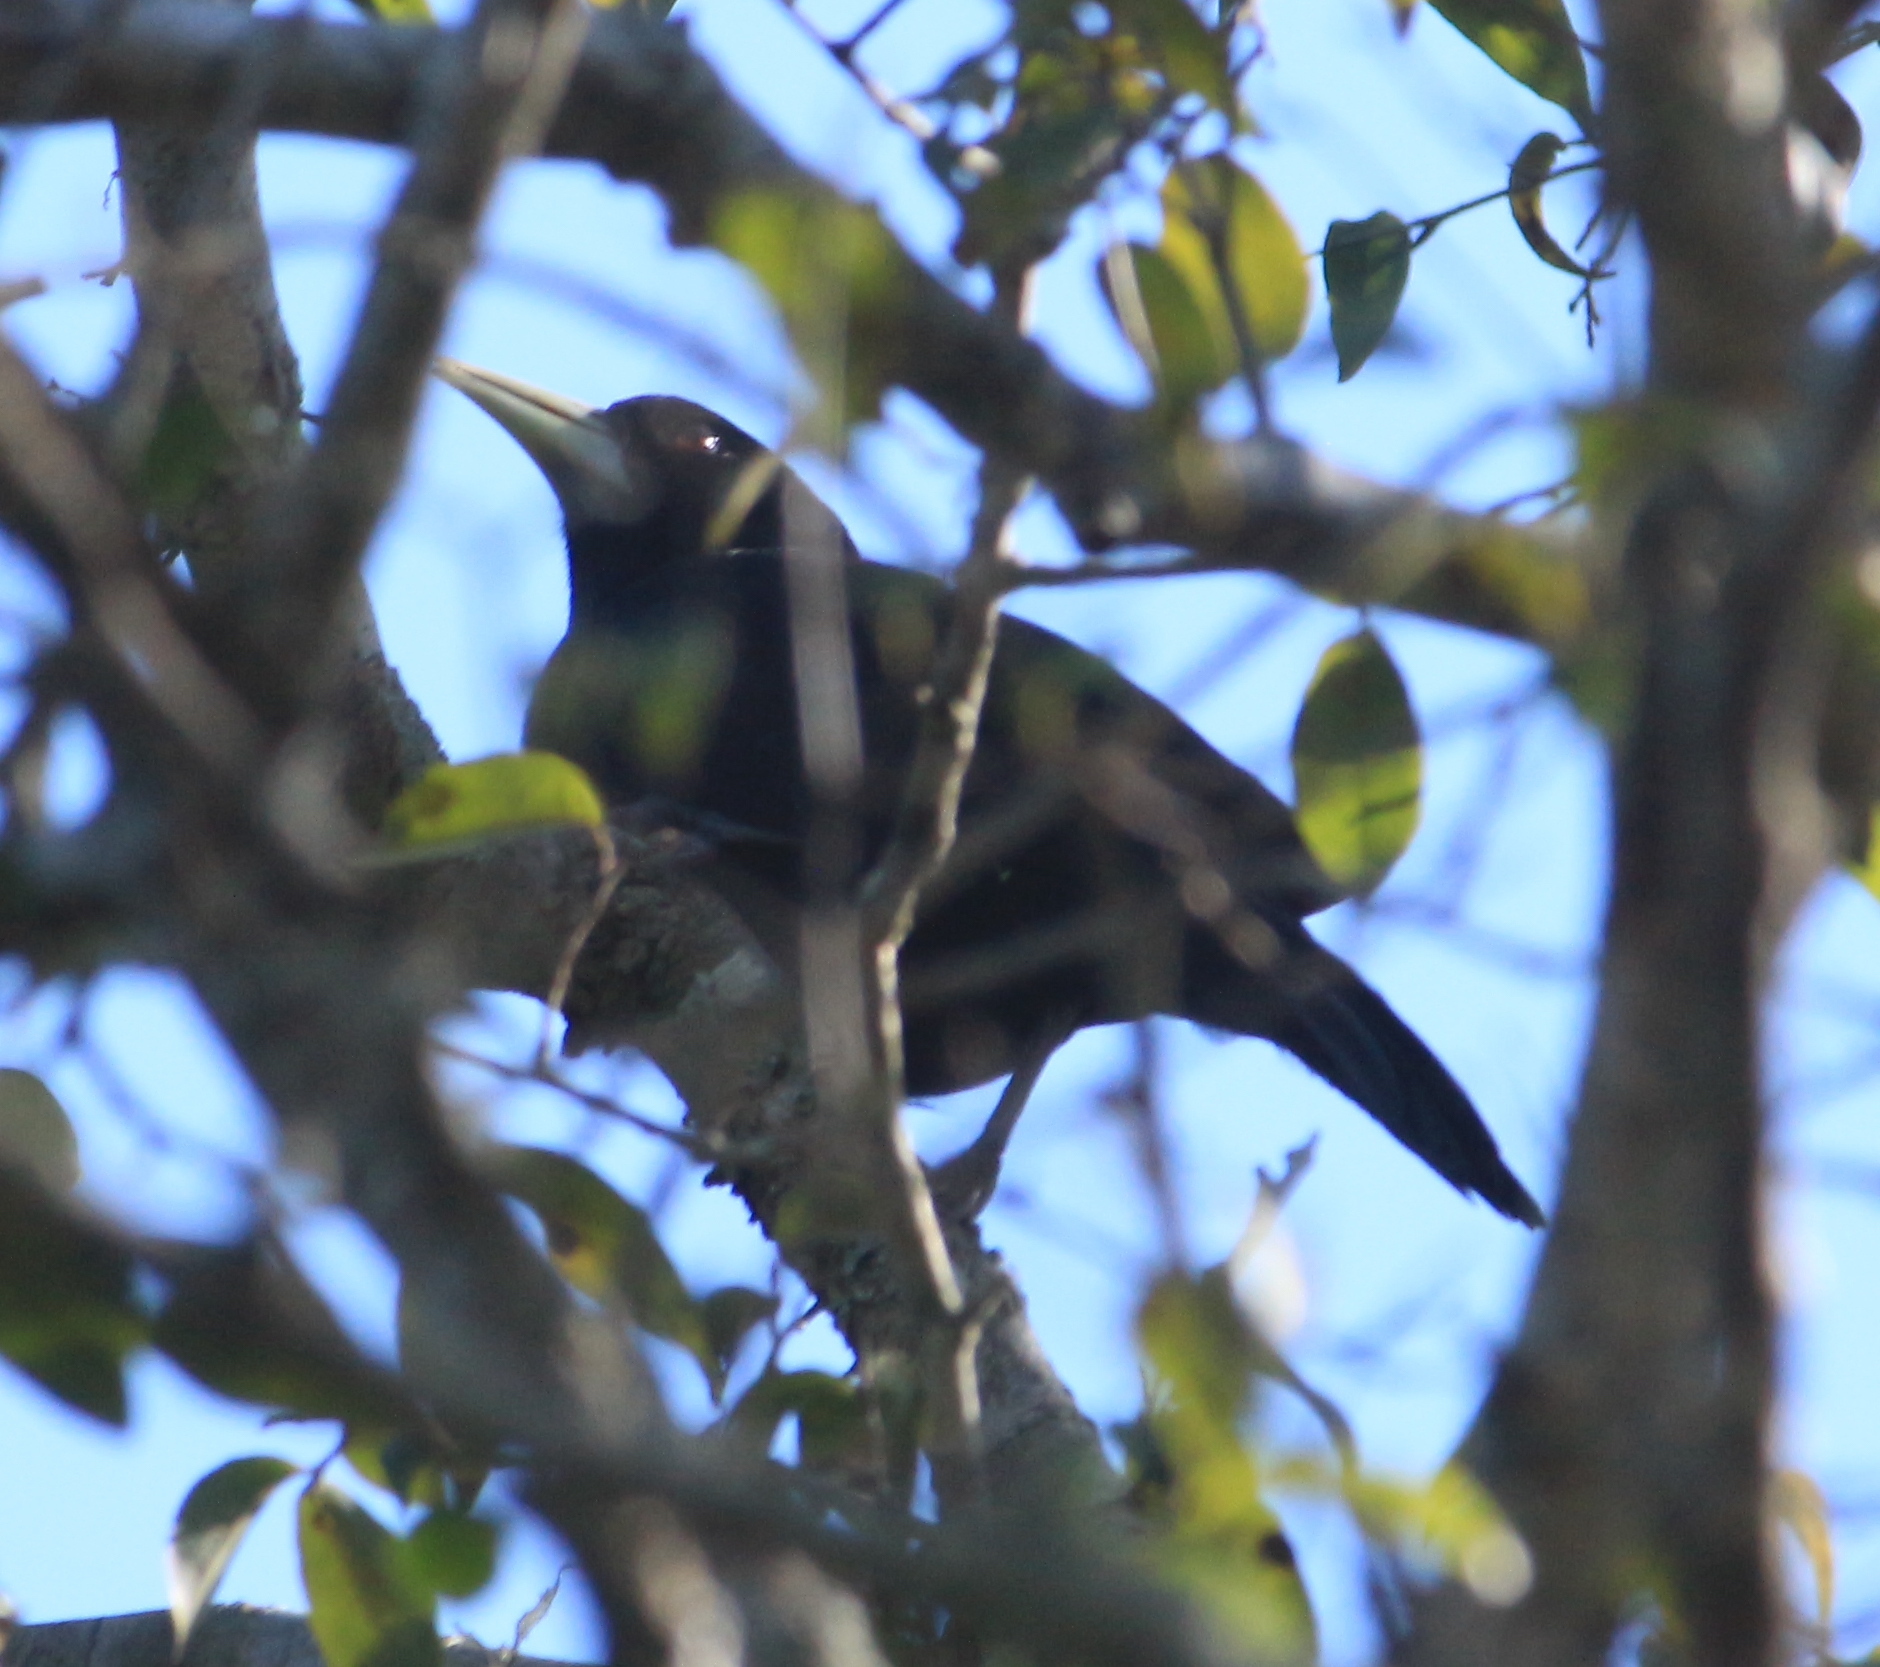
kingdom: Animalia
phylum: Chordata
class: Aves
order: Passeriformes
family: Icteridae
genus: Cacicus
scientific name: Cacicus solitarius
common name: Solitary cacique
